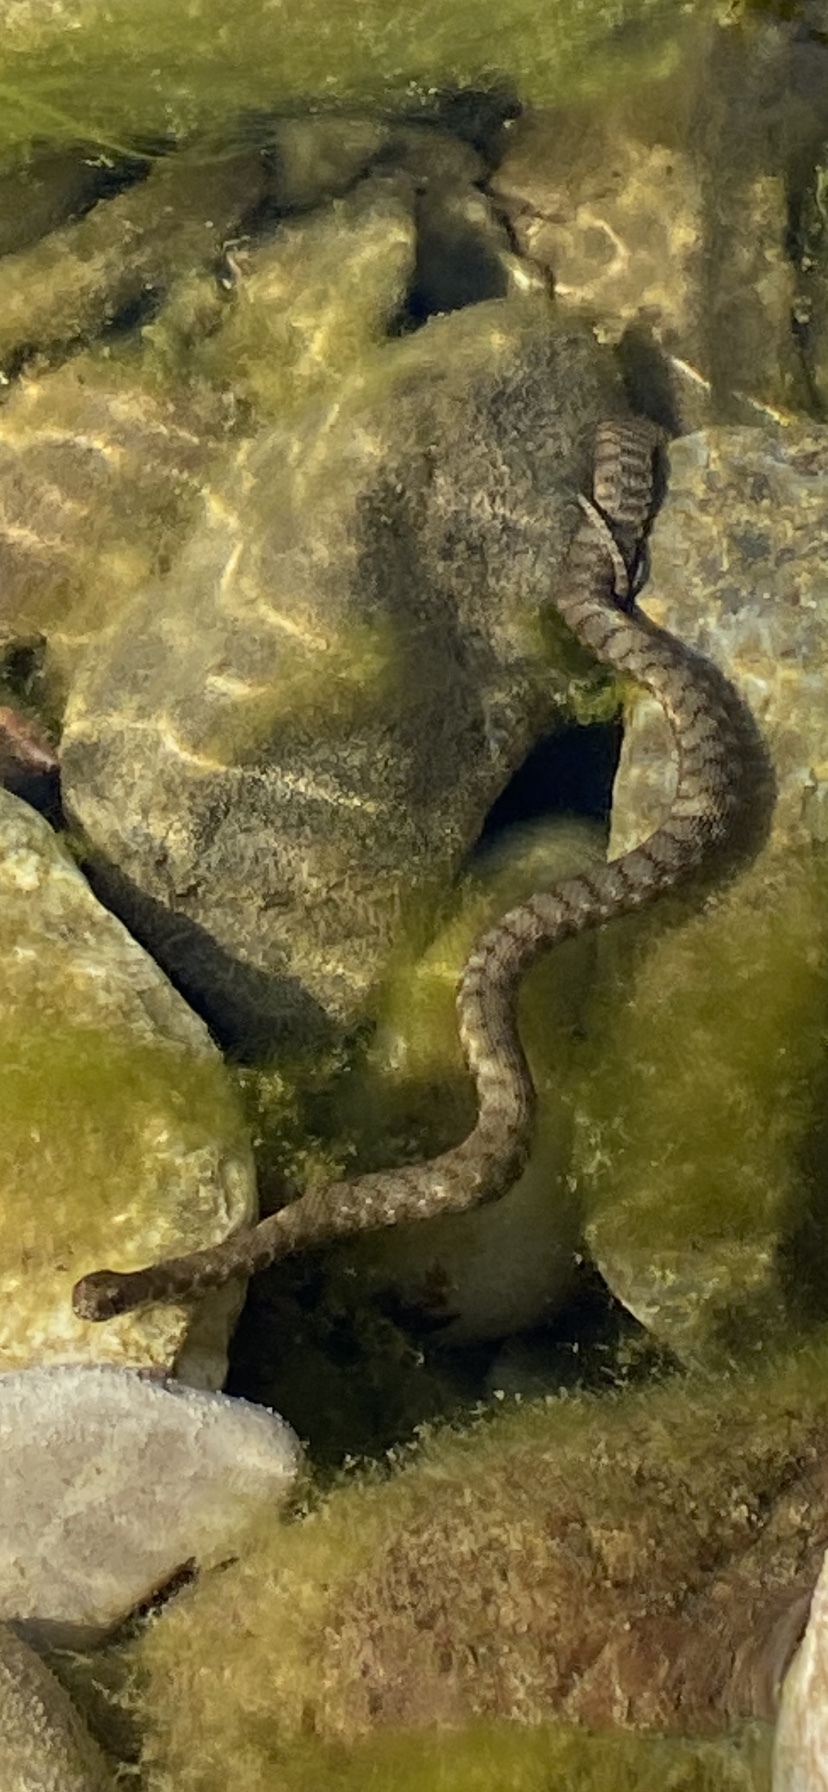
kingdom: Animalia
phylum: Chordata
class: Squamata
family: Colubridae
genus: Natrix
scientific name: Natrix tessellata
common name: Dice snake
